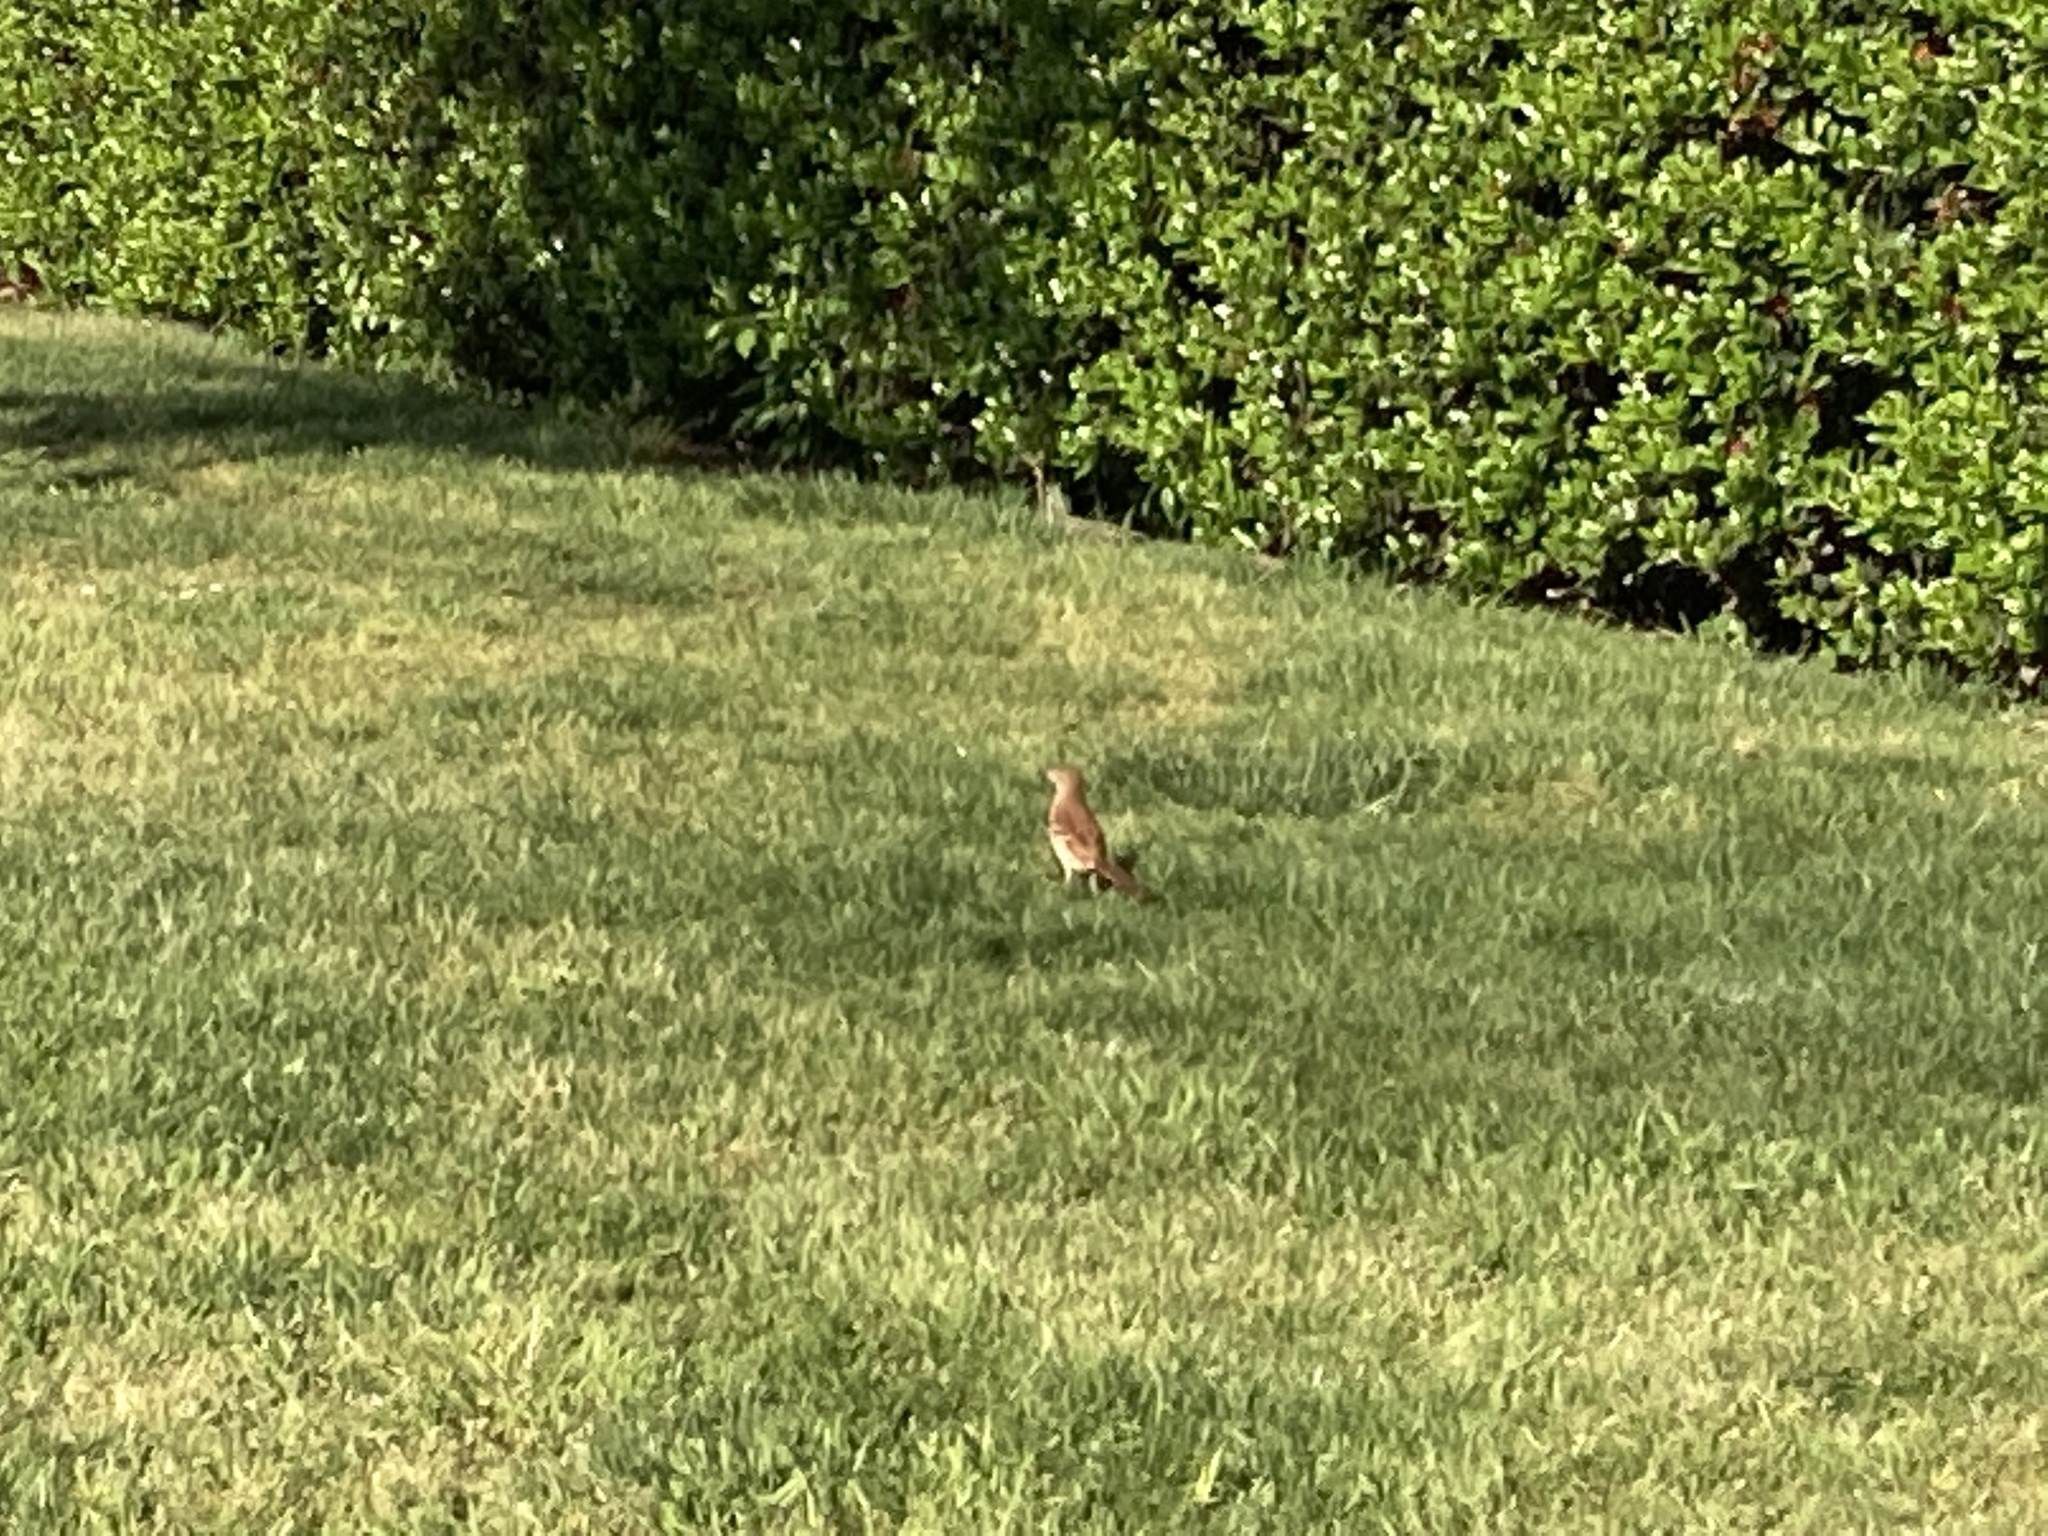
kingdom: Animalia
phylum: Chordata
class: Aves
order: Passeriformes
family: Mimidae
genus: Toxostoma
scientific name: Toxostoma rufum
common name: Brown thrasher
